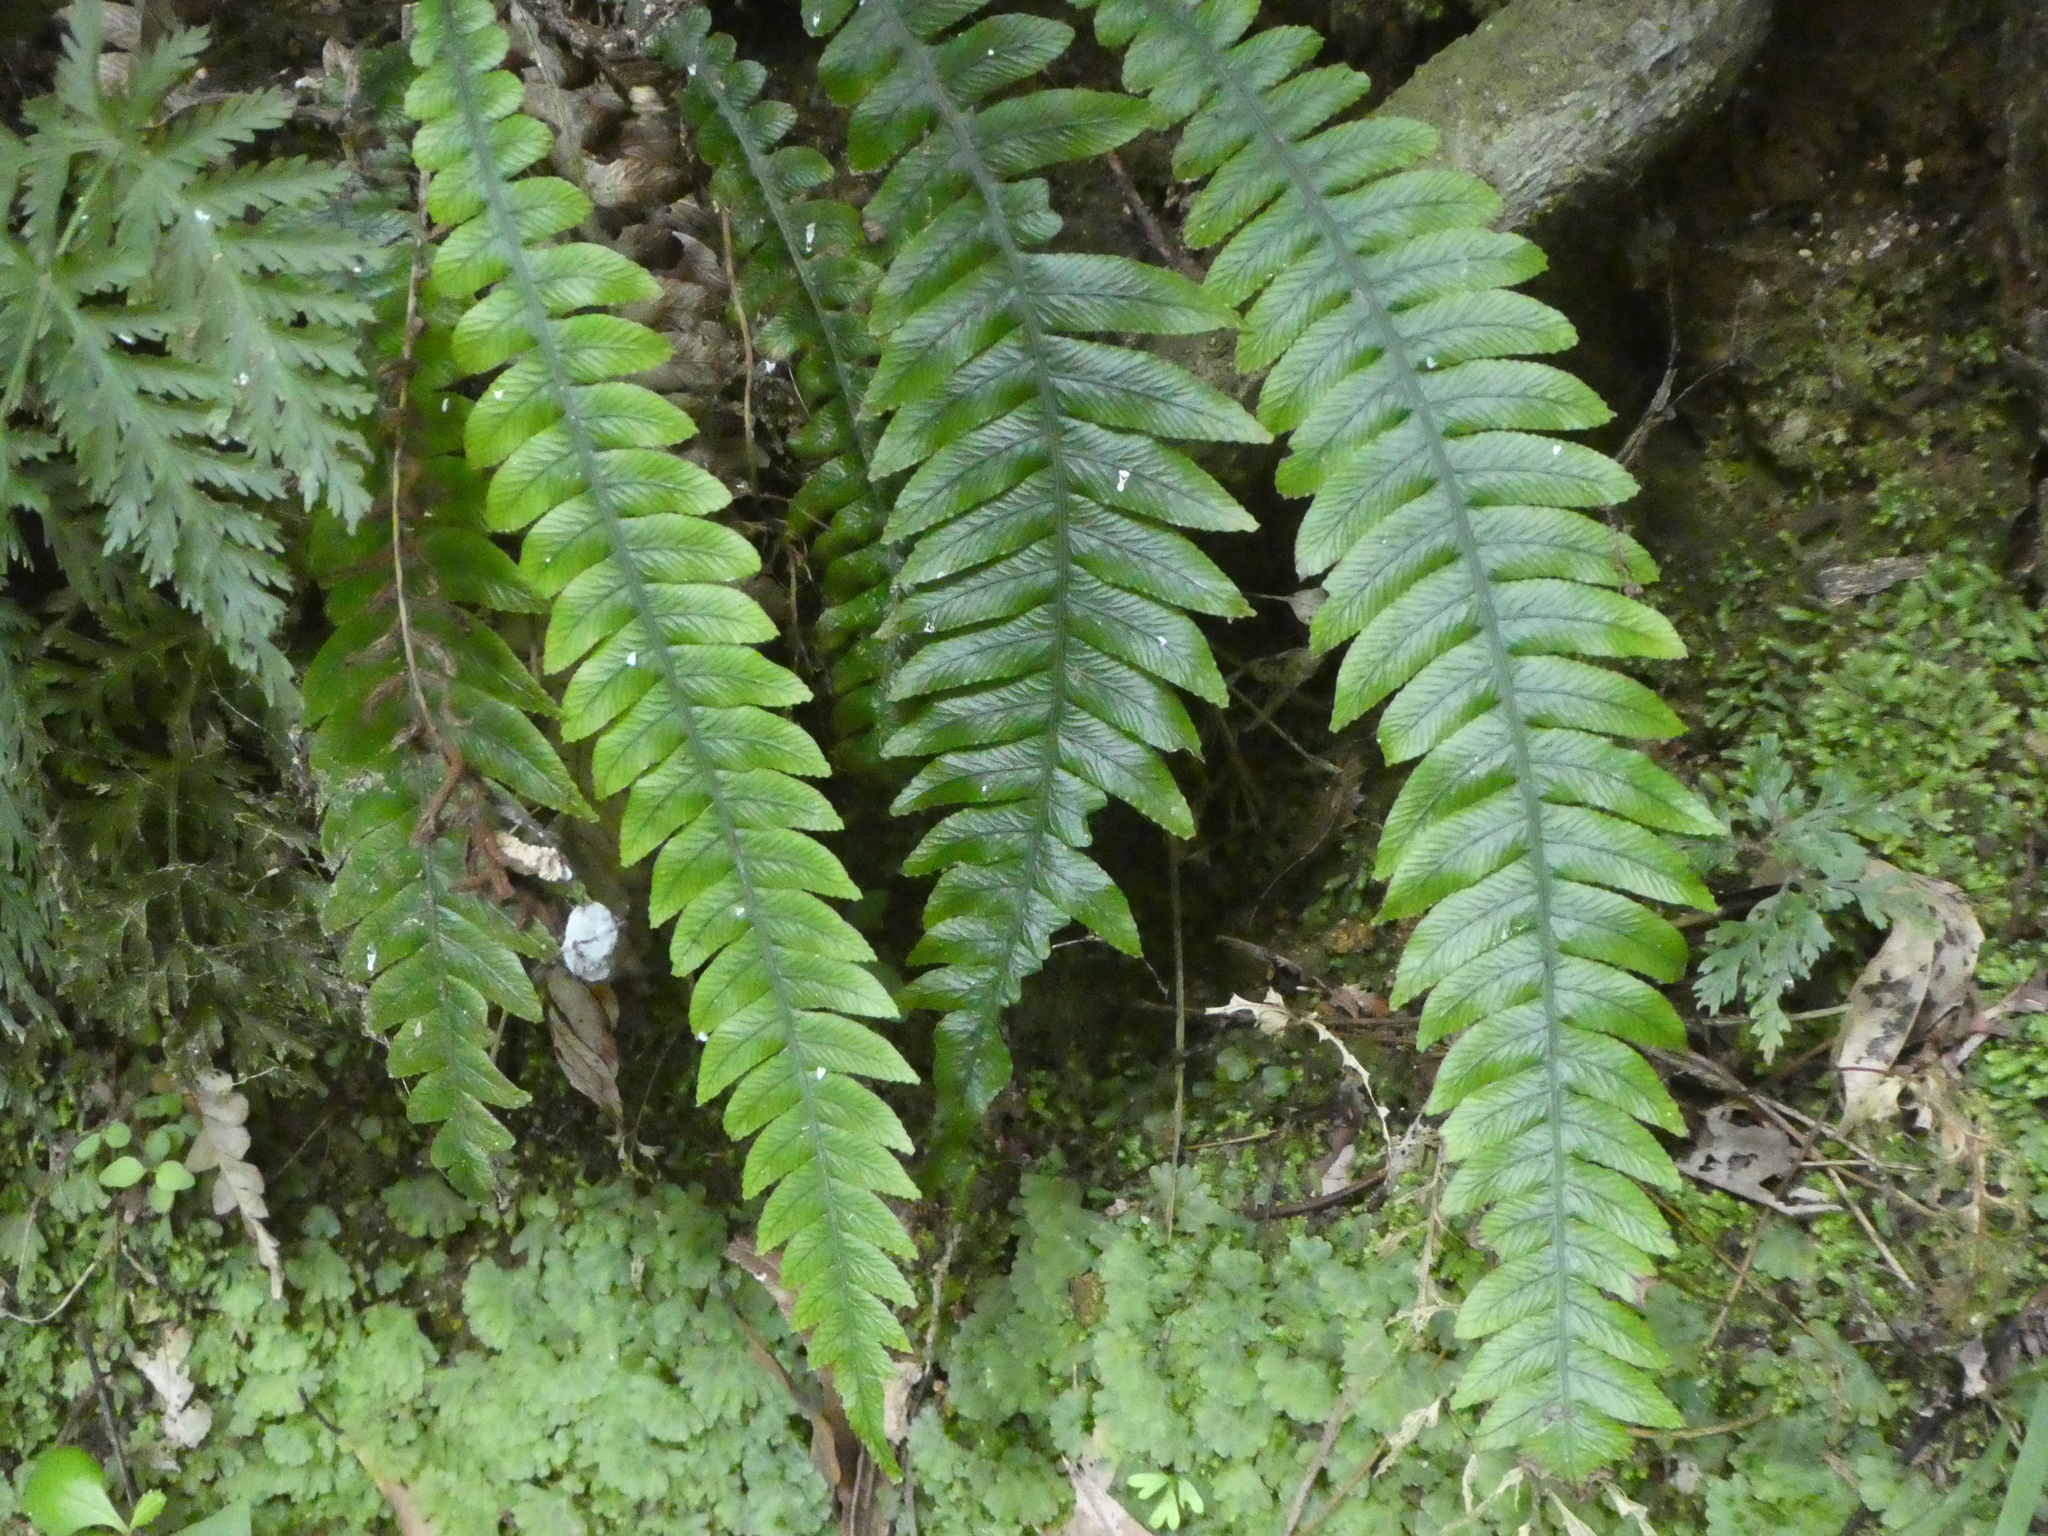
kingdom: Plantae
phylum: Tracheophyta
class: Polypodiopsida
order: Polypodiales
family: Blechnaceae
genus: Austroblechnum
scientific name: Austroblechnum lanceolatum
